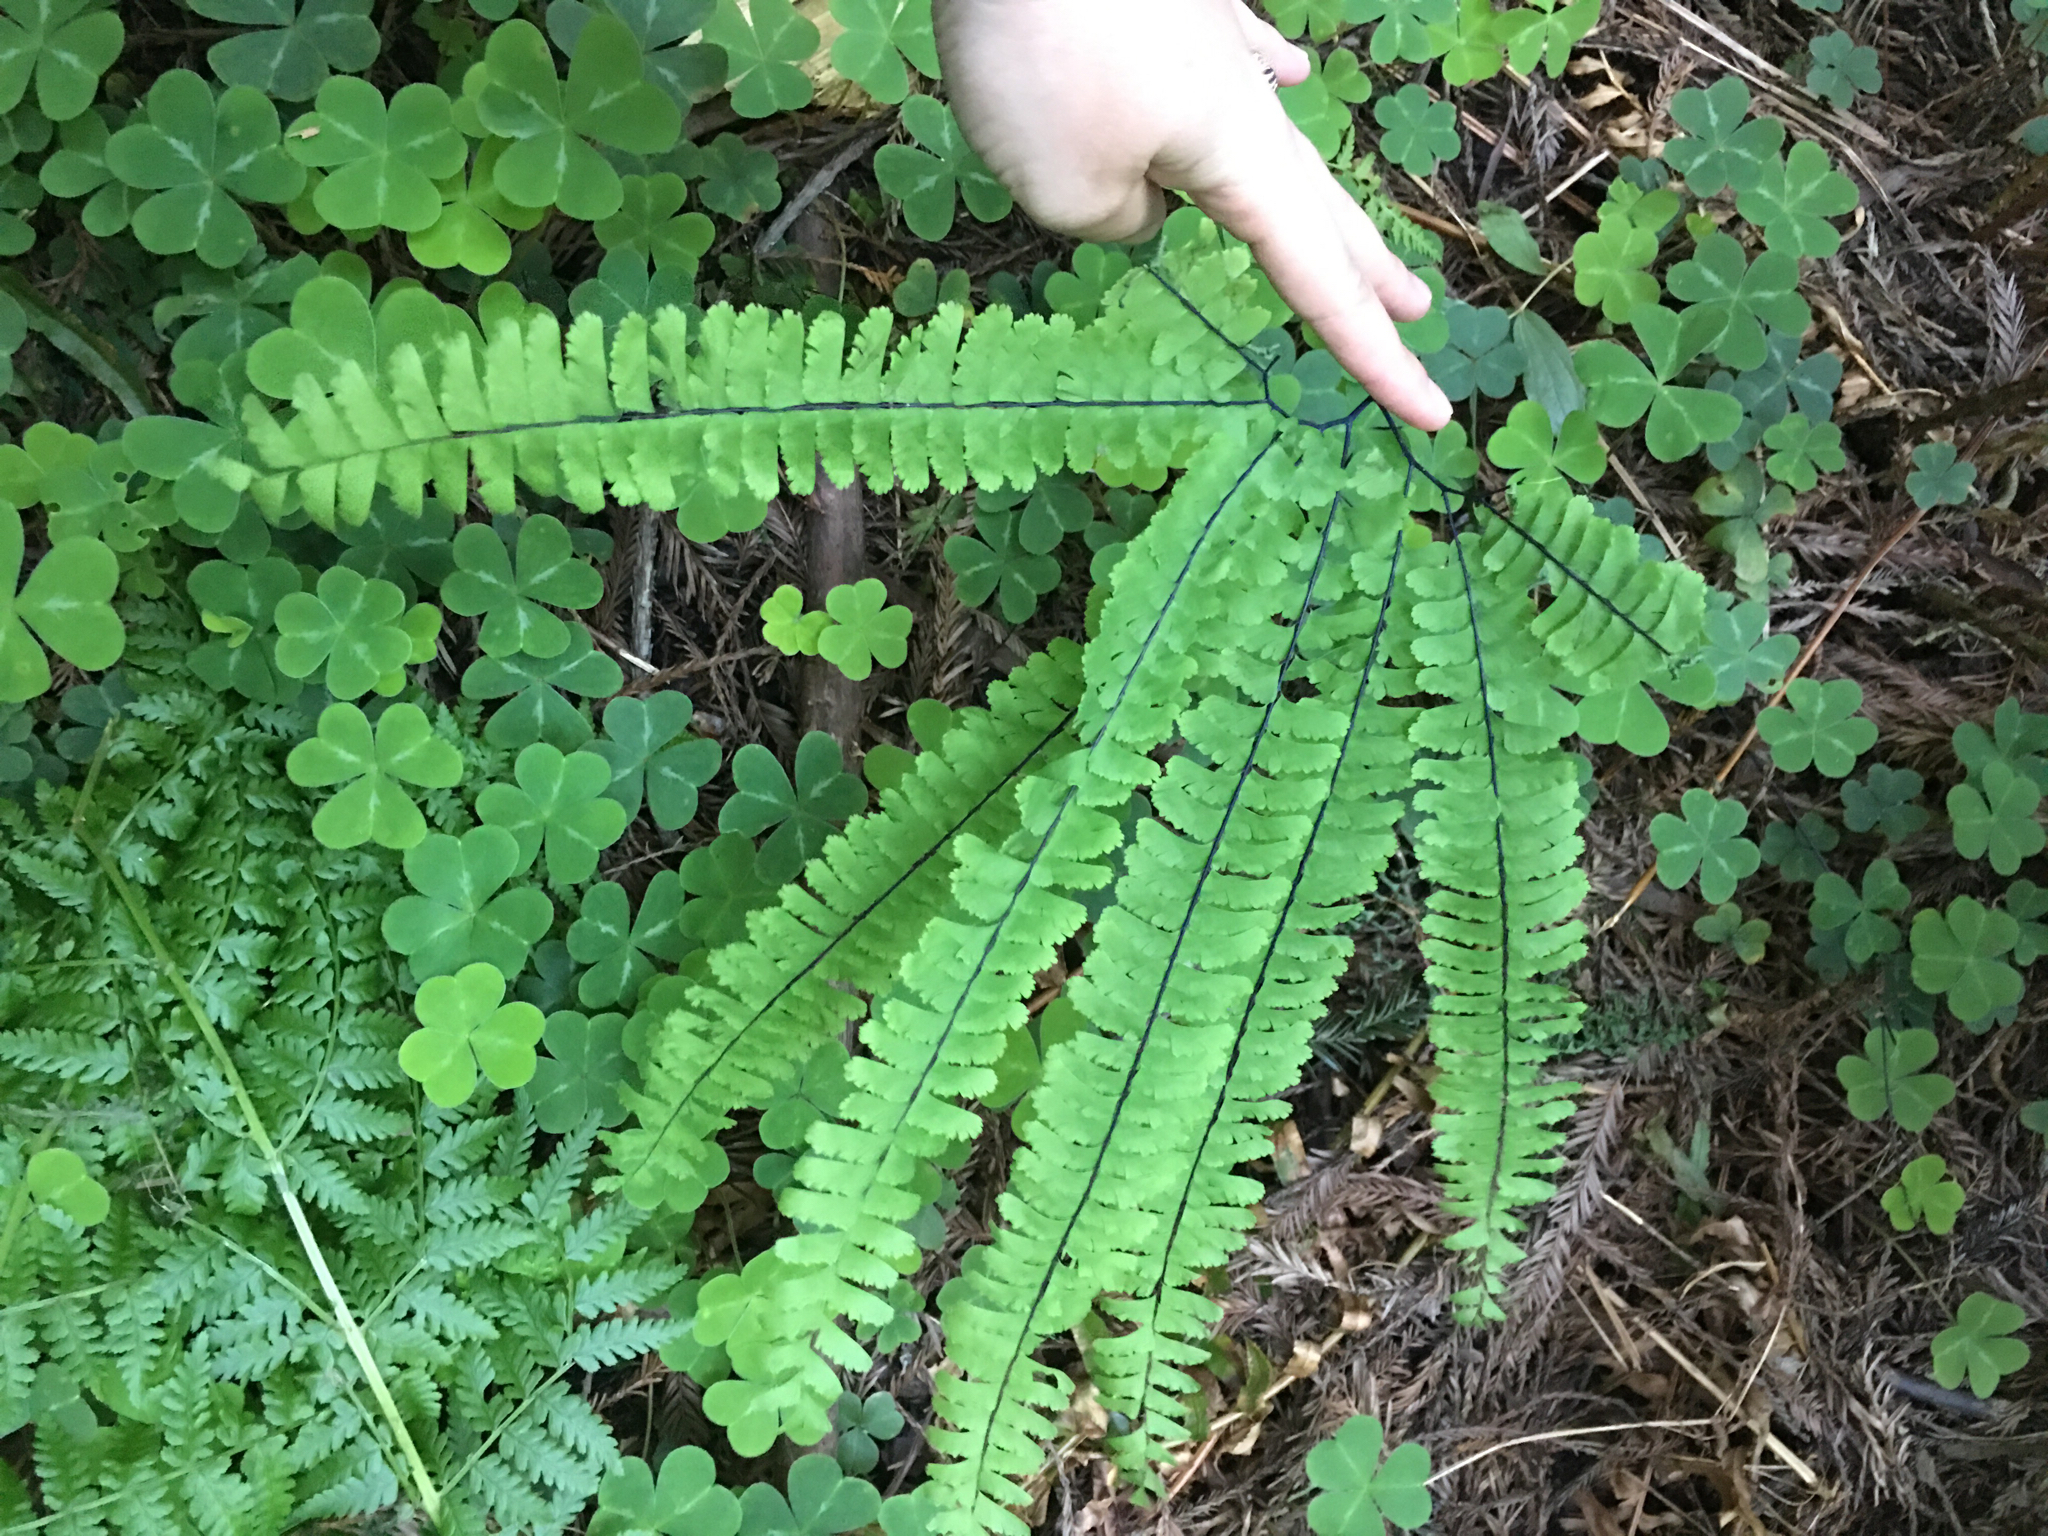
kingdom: Plantae
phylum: Tracheophyta
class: Polypodiopsida
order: Polypodiales
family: Pteridaceae
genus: Adiantum
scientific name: Adiantum aleuticum
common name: Aleutian maidenhair fern
